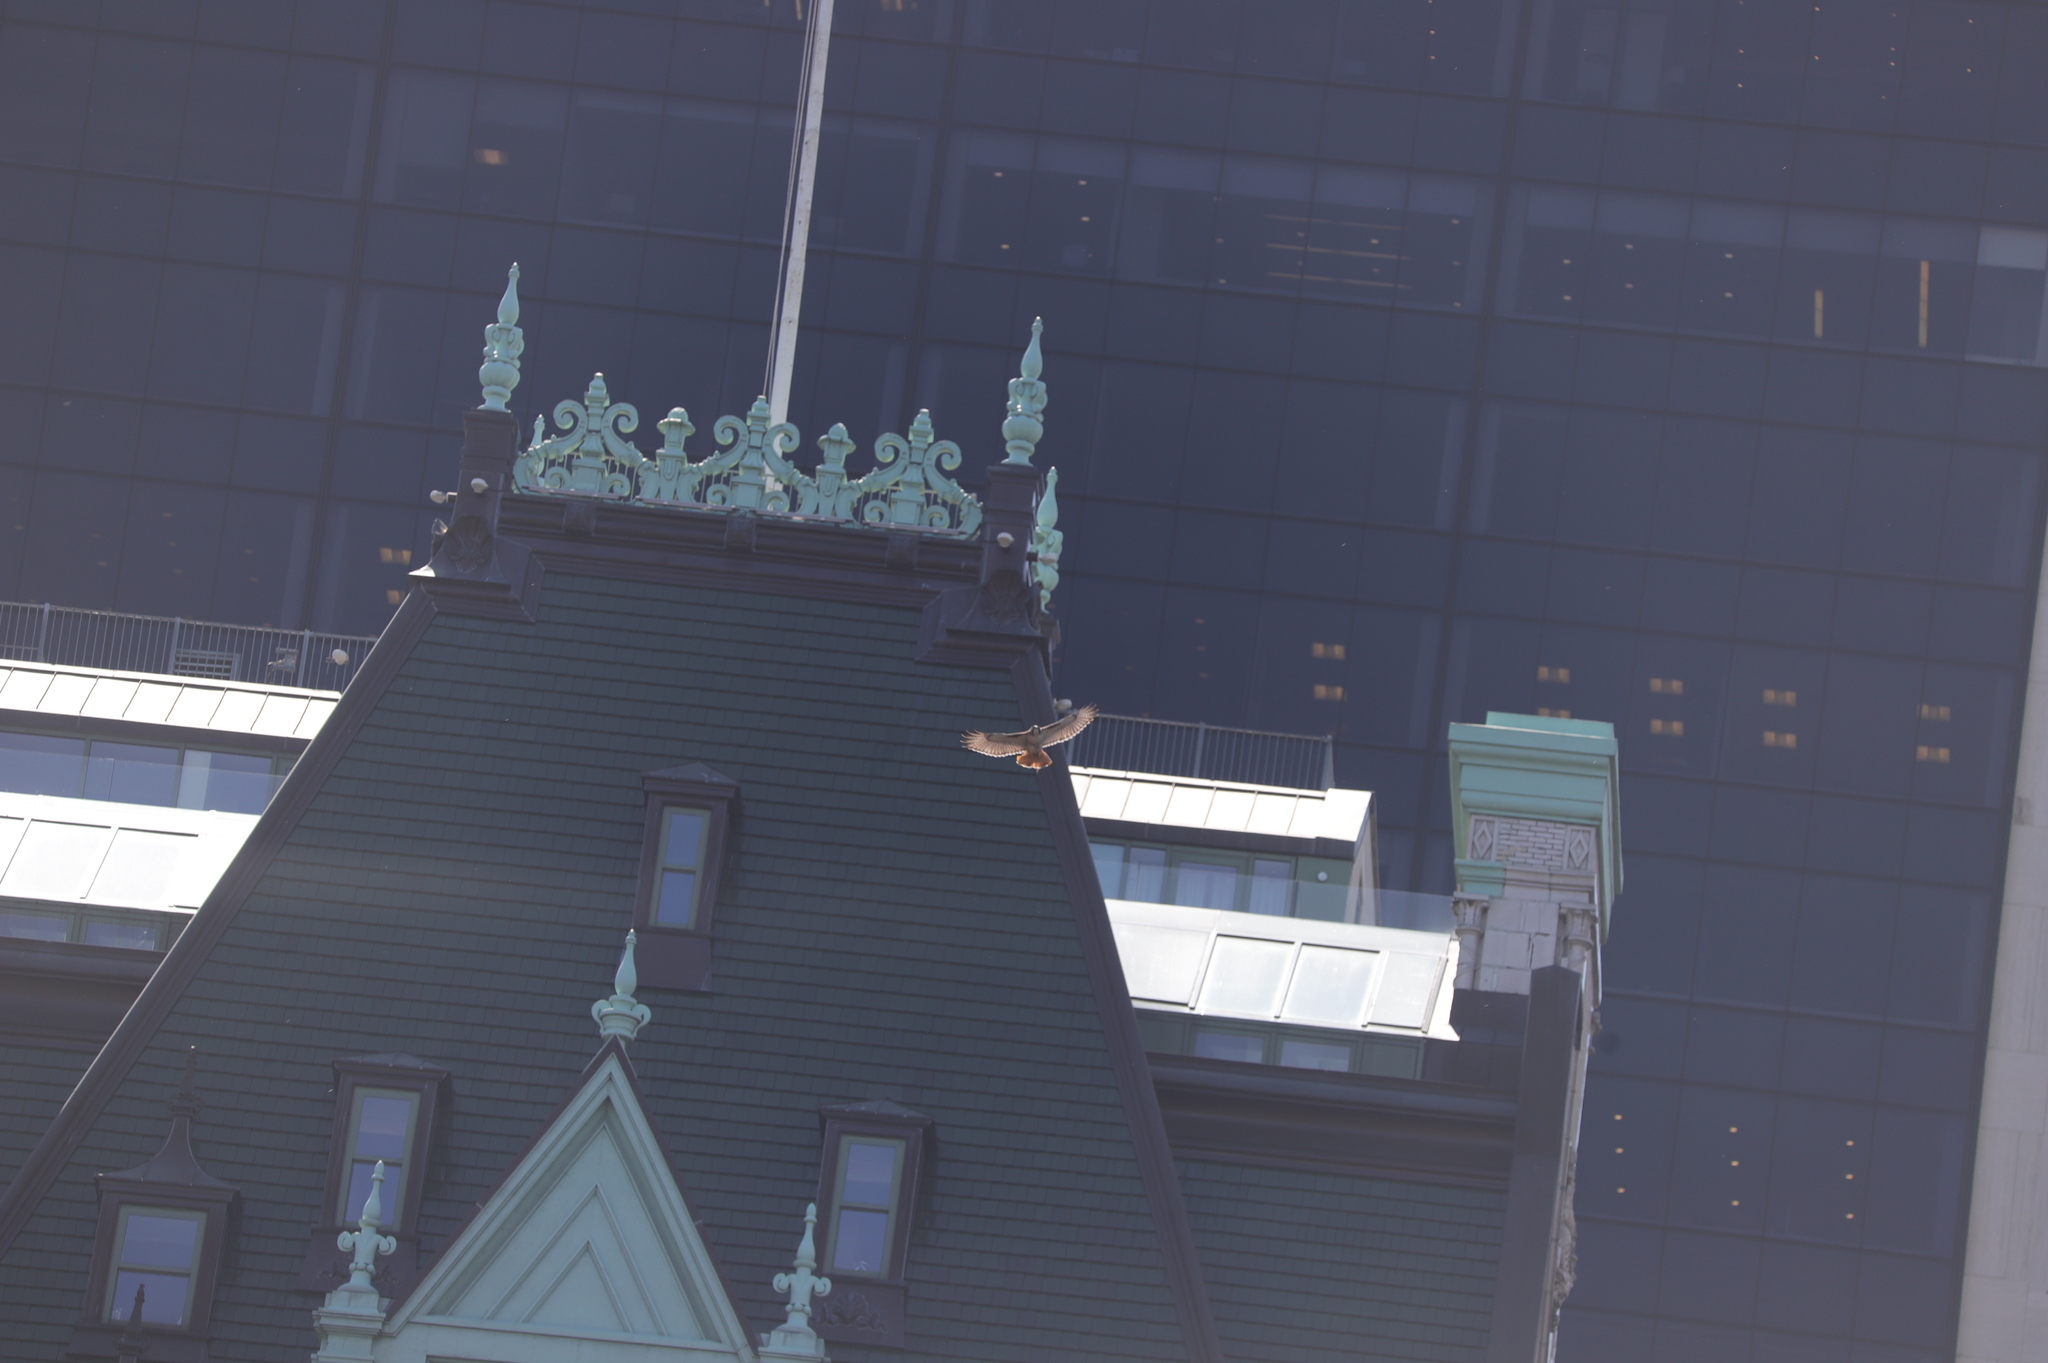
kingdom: Animalia
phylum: Chordata
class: Aves
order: Accipitriformes
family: Accipitridae
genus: Buteo
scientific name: Buteo jamaicensis
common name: Red-tailed hawk
